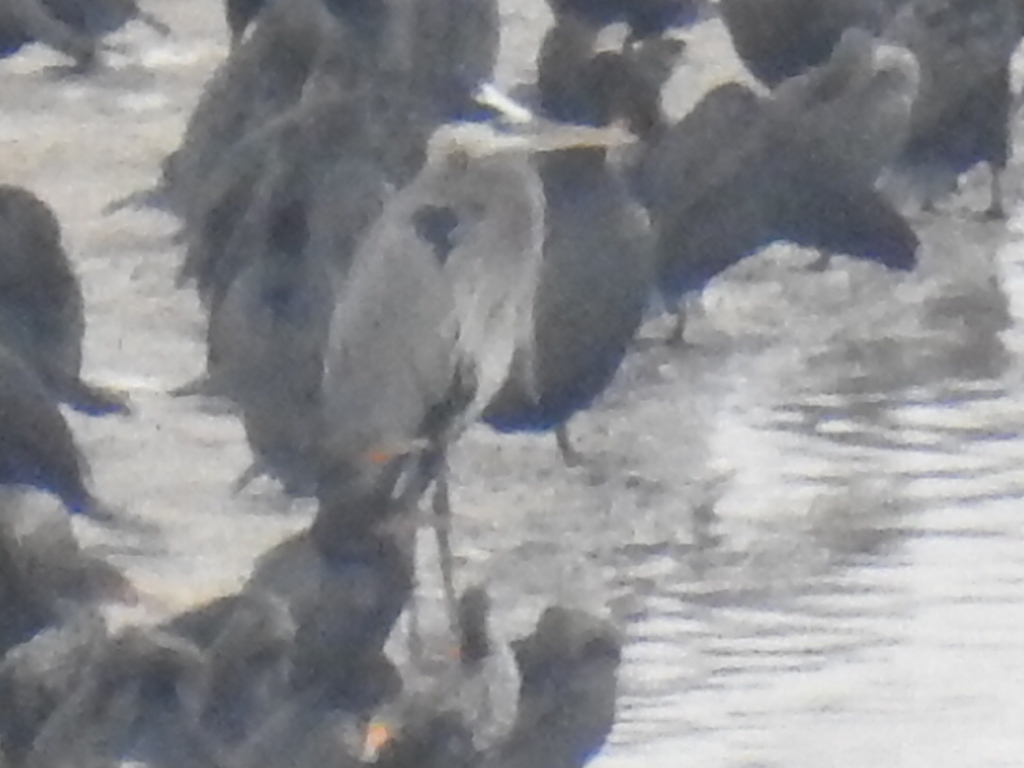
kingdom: Animalia
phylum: Chordata
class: Aves
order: Pelecaniformes
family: Ardeidae
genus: Ardea
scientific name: Ardea herodias
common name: Great blue heron
